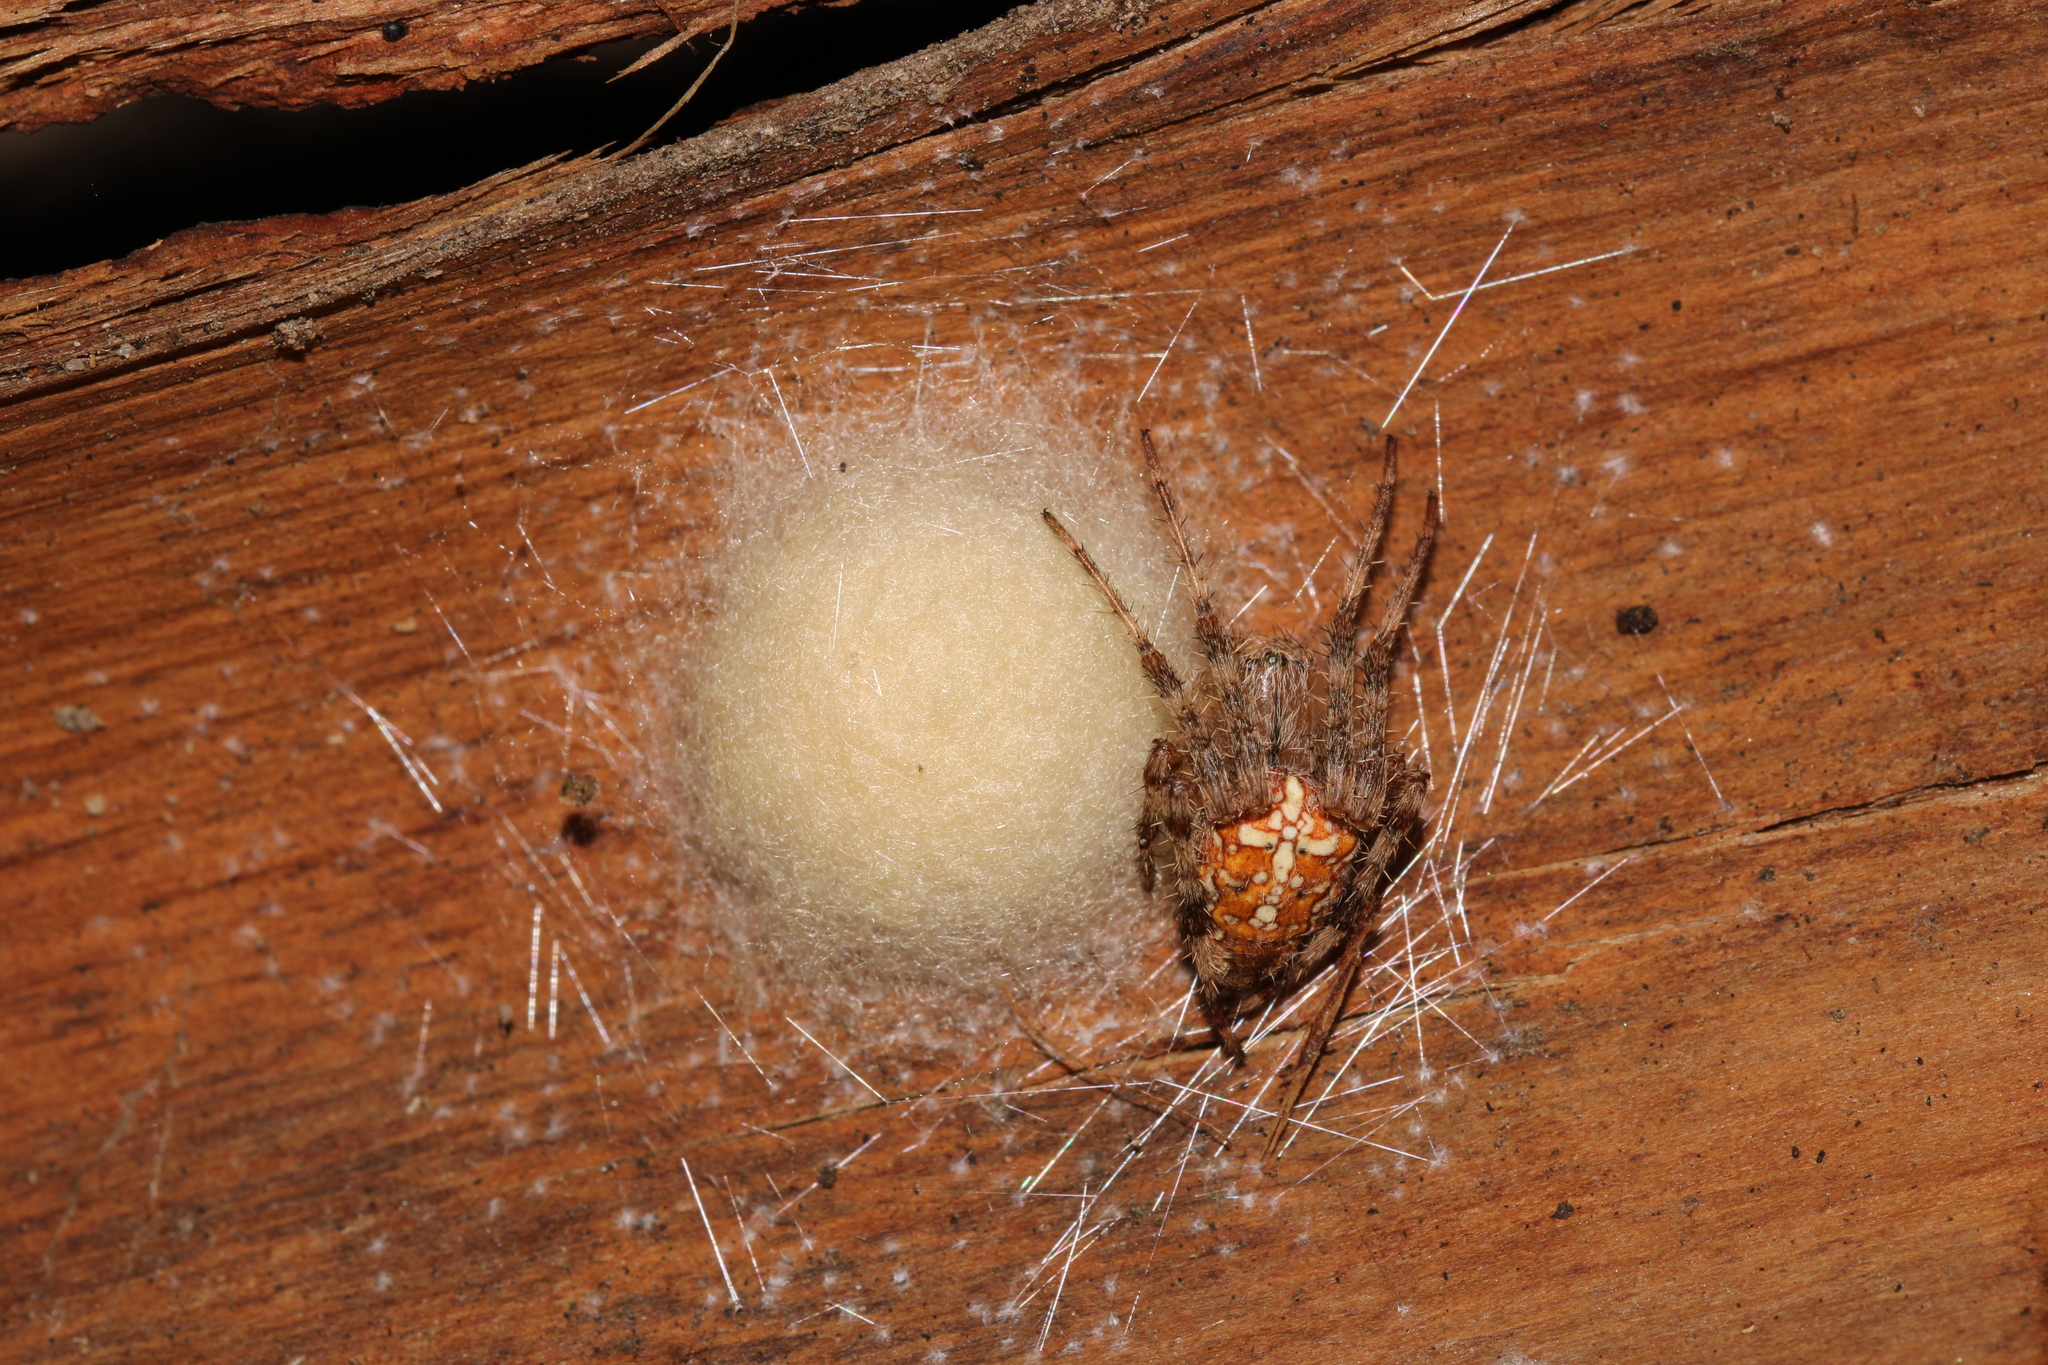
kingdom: Animalia
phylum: Arthropoda
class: Arachnida
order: Araneae
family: Araneidae
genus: Araneus
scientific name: Araneus diadematus
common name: Cross orbweaver
